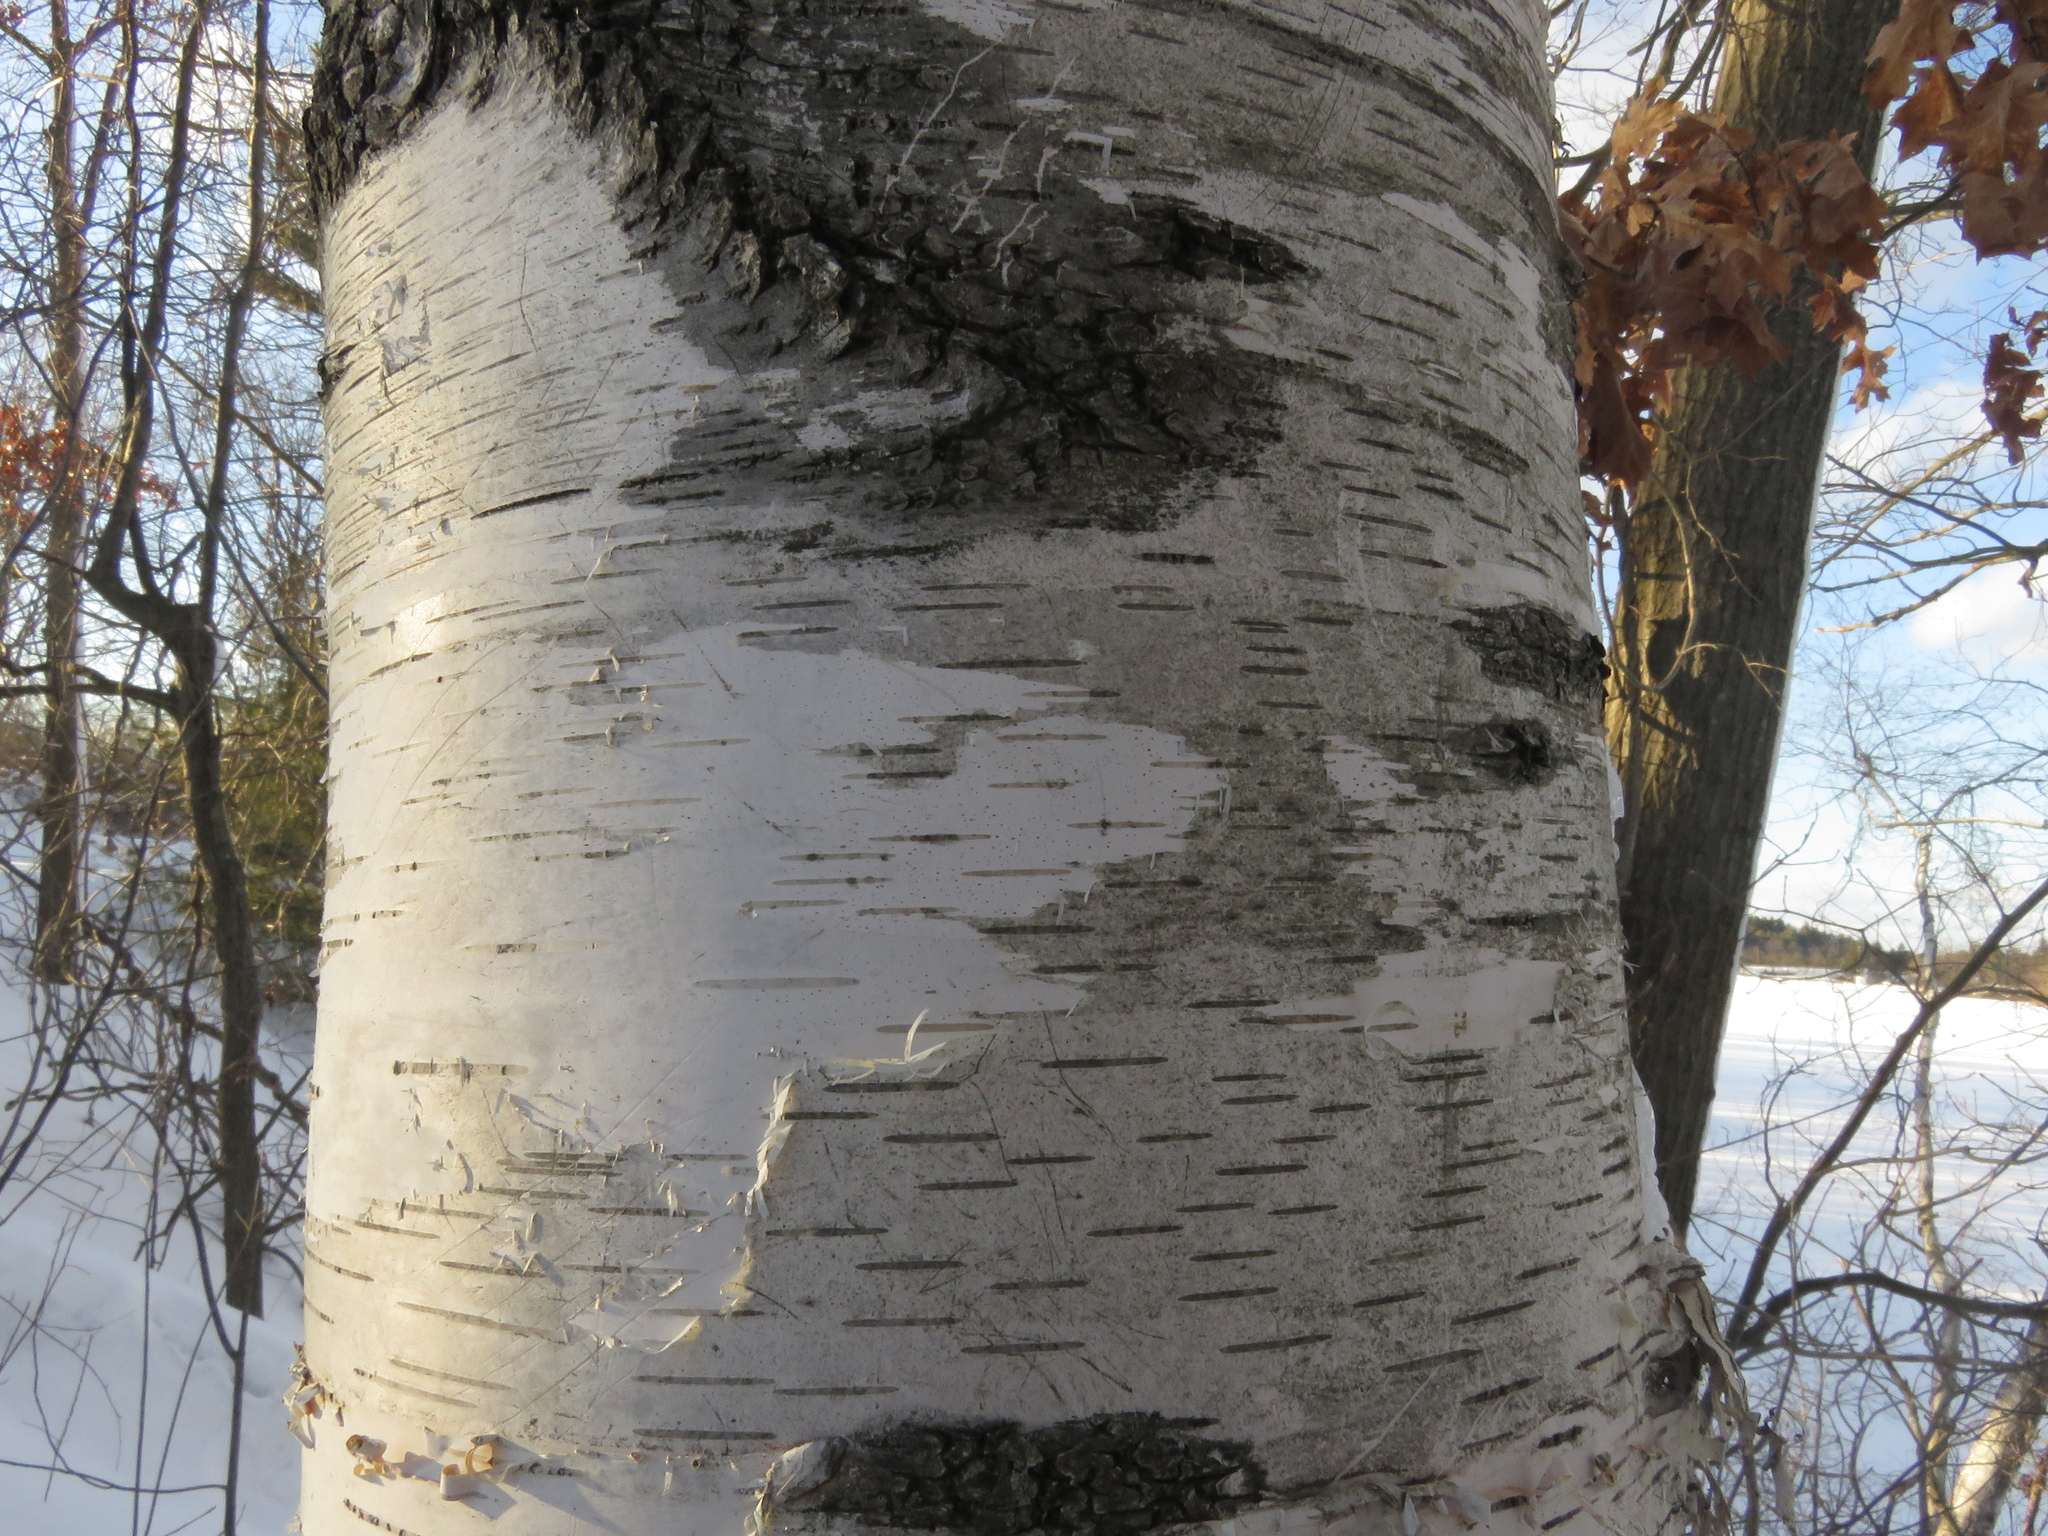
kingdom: Plantae
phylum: Tracheophyta
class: Magnoliopsida
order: Fagales
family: Betulaceae
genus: Betula
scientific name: Betula papyrifera
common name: Paper birch
